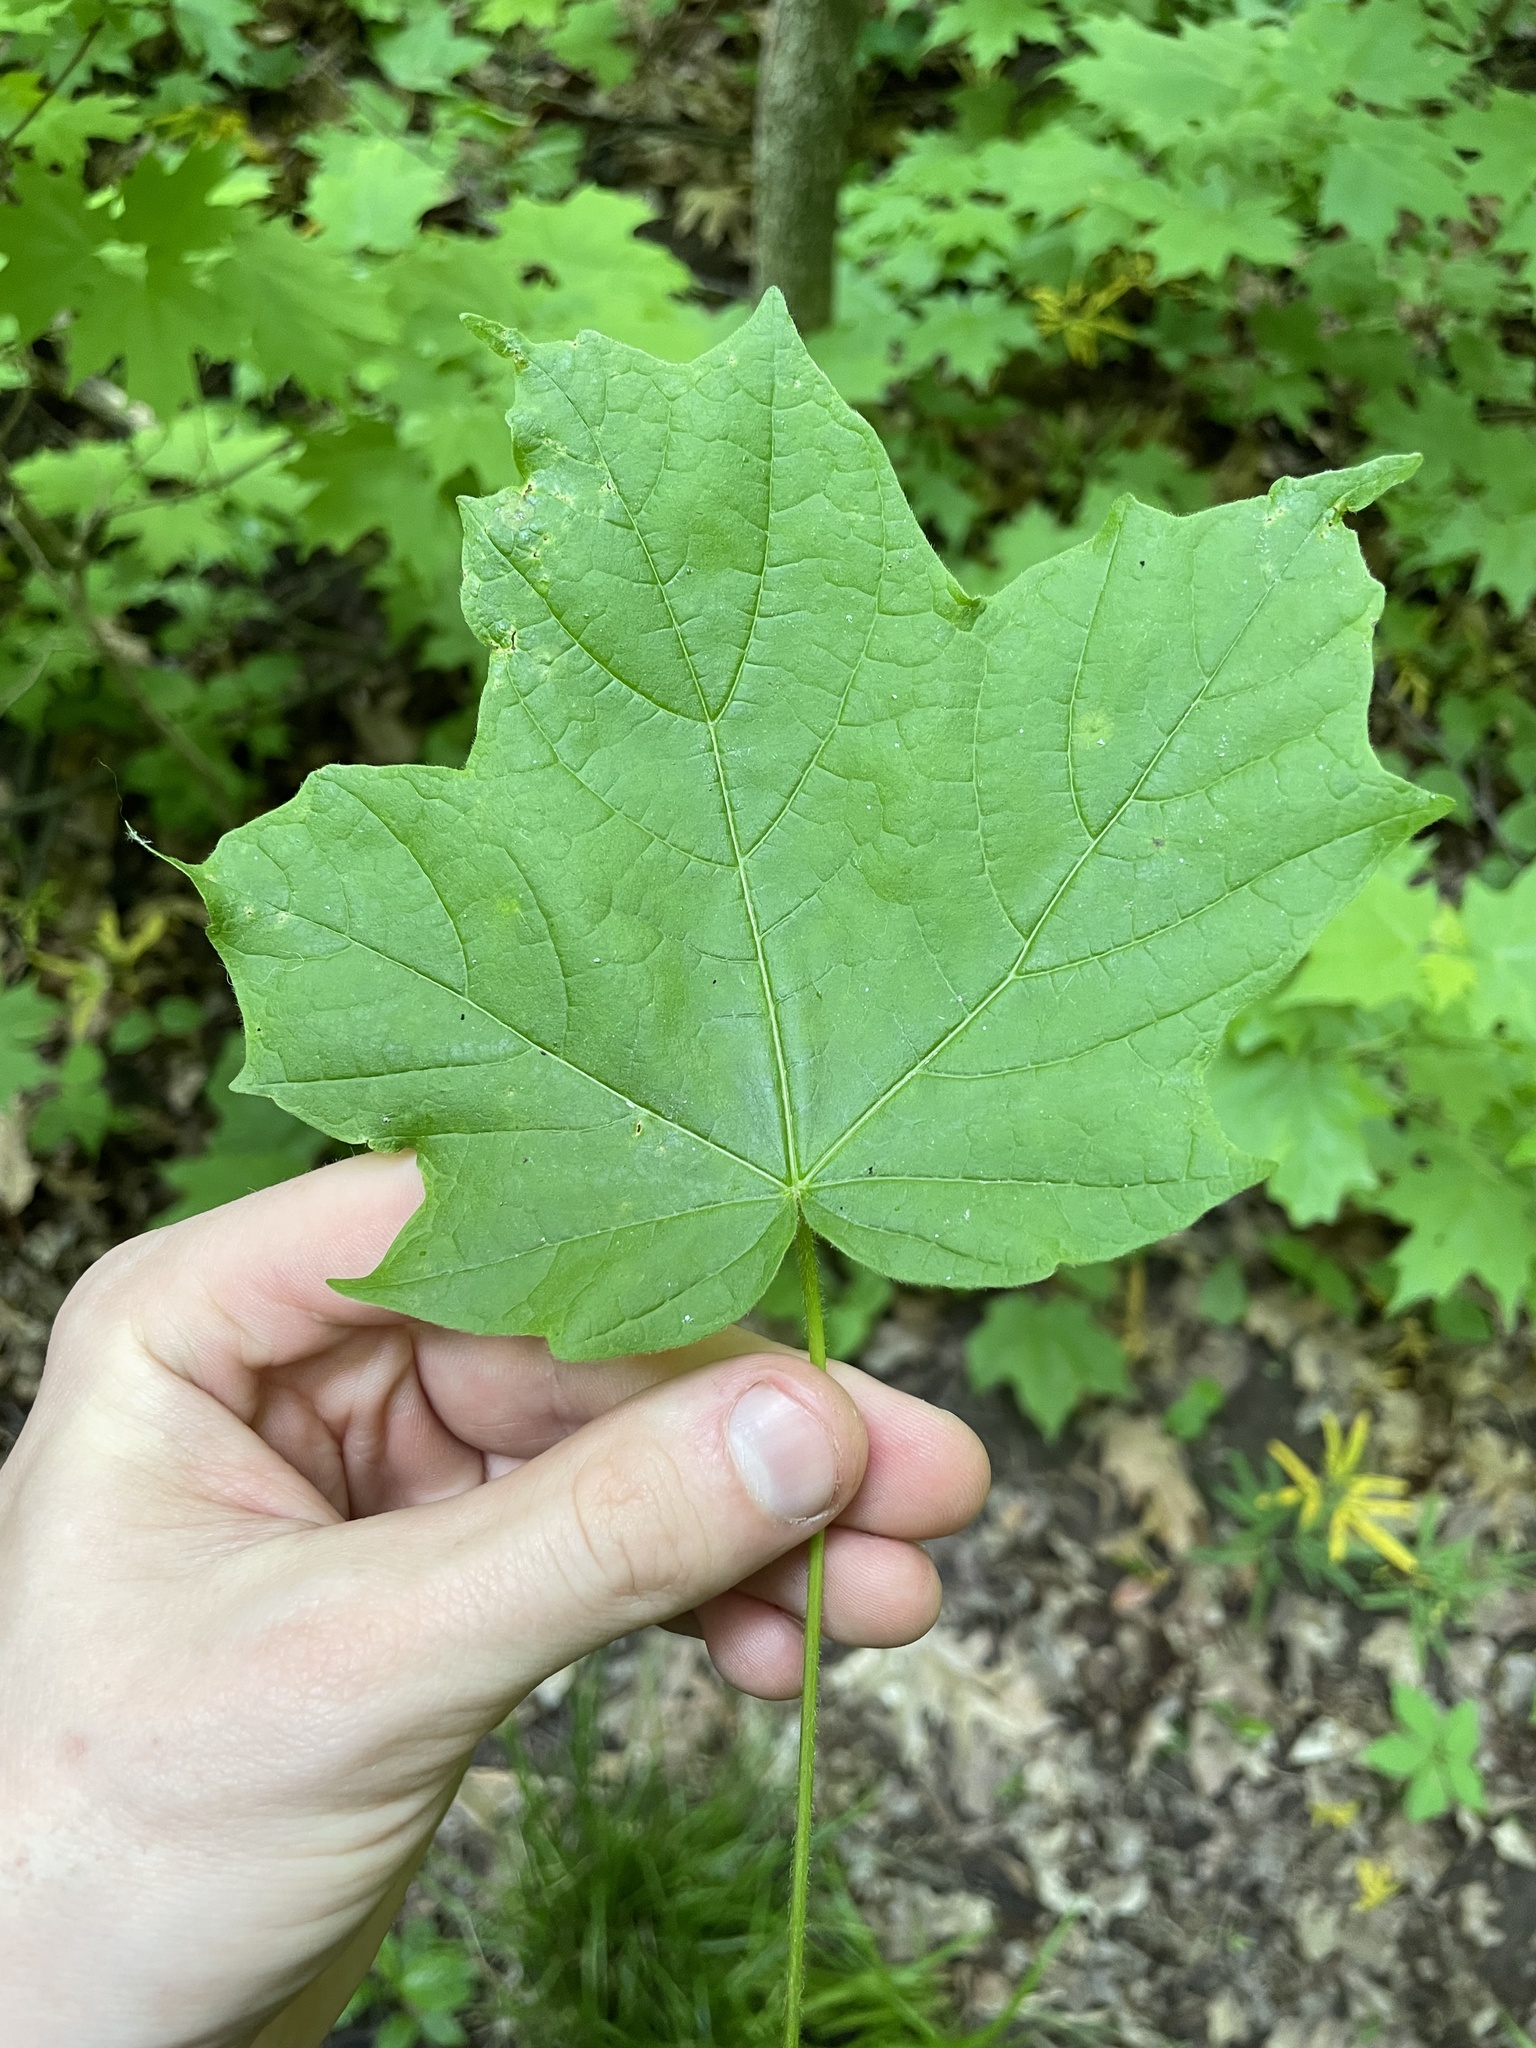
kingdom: Plantae
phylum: Tracheophyta
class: Magnoliopsida
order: Sapindales
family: Sapindaceae
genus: Acer
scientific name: Acer nigrum
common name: Black maple
